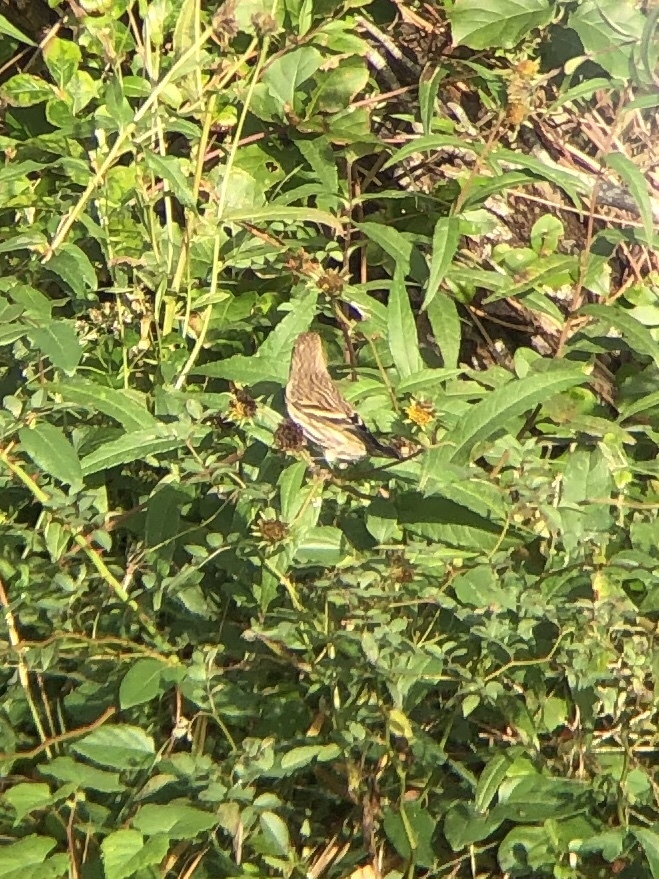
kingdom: Animalia
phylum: Chordata
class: Aves
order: Passeriformes
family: Fringillidae
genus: Spinus
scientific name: Spinus pinus
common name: Pine siskin
